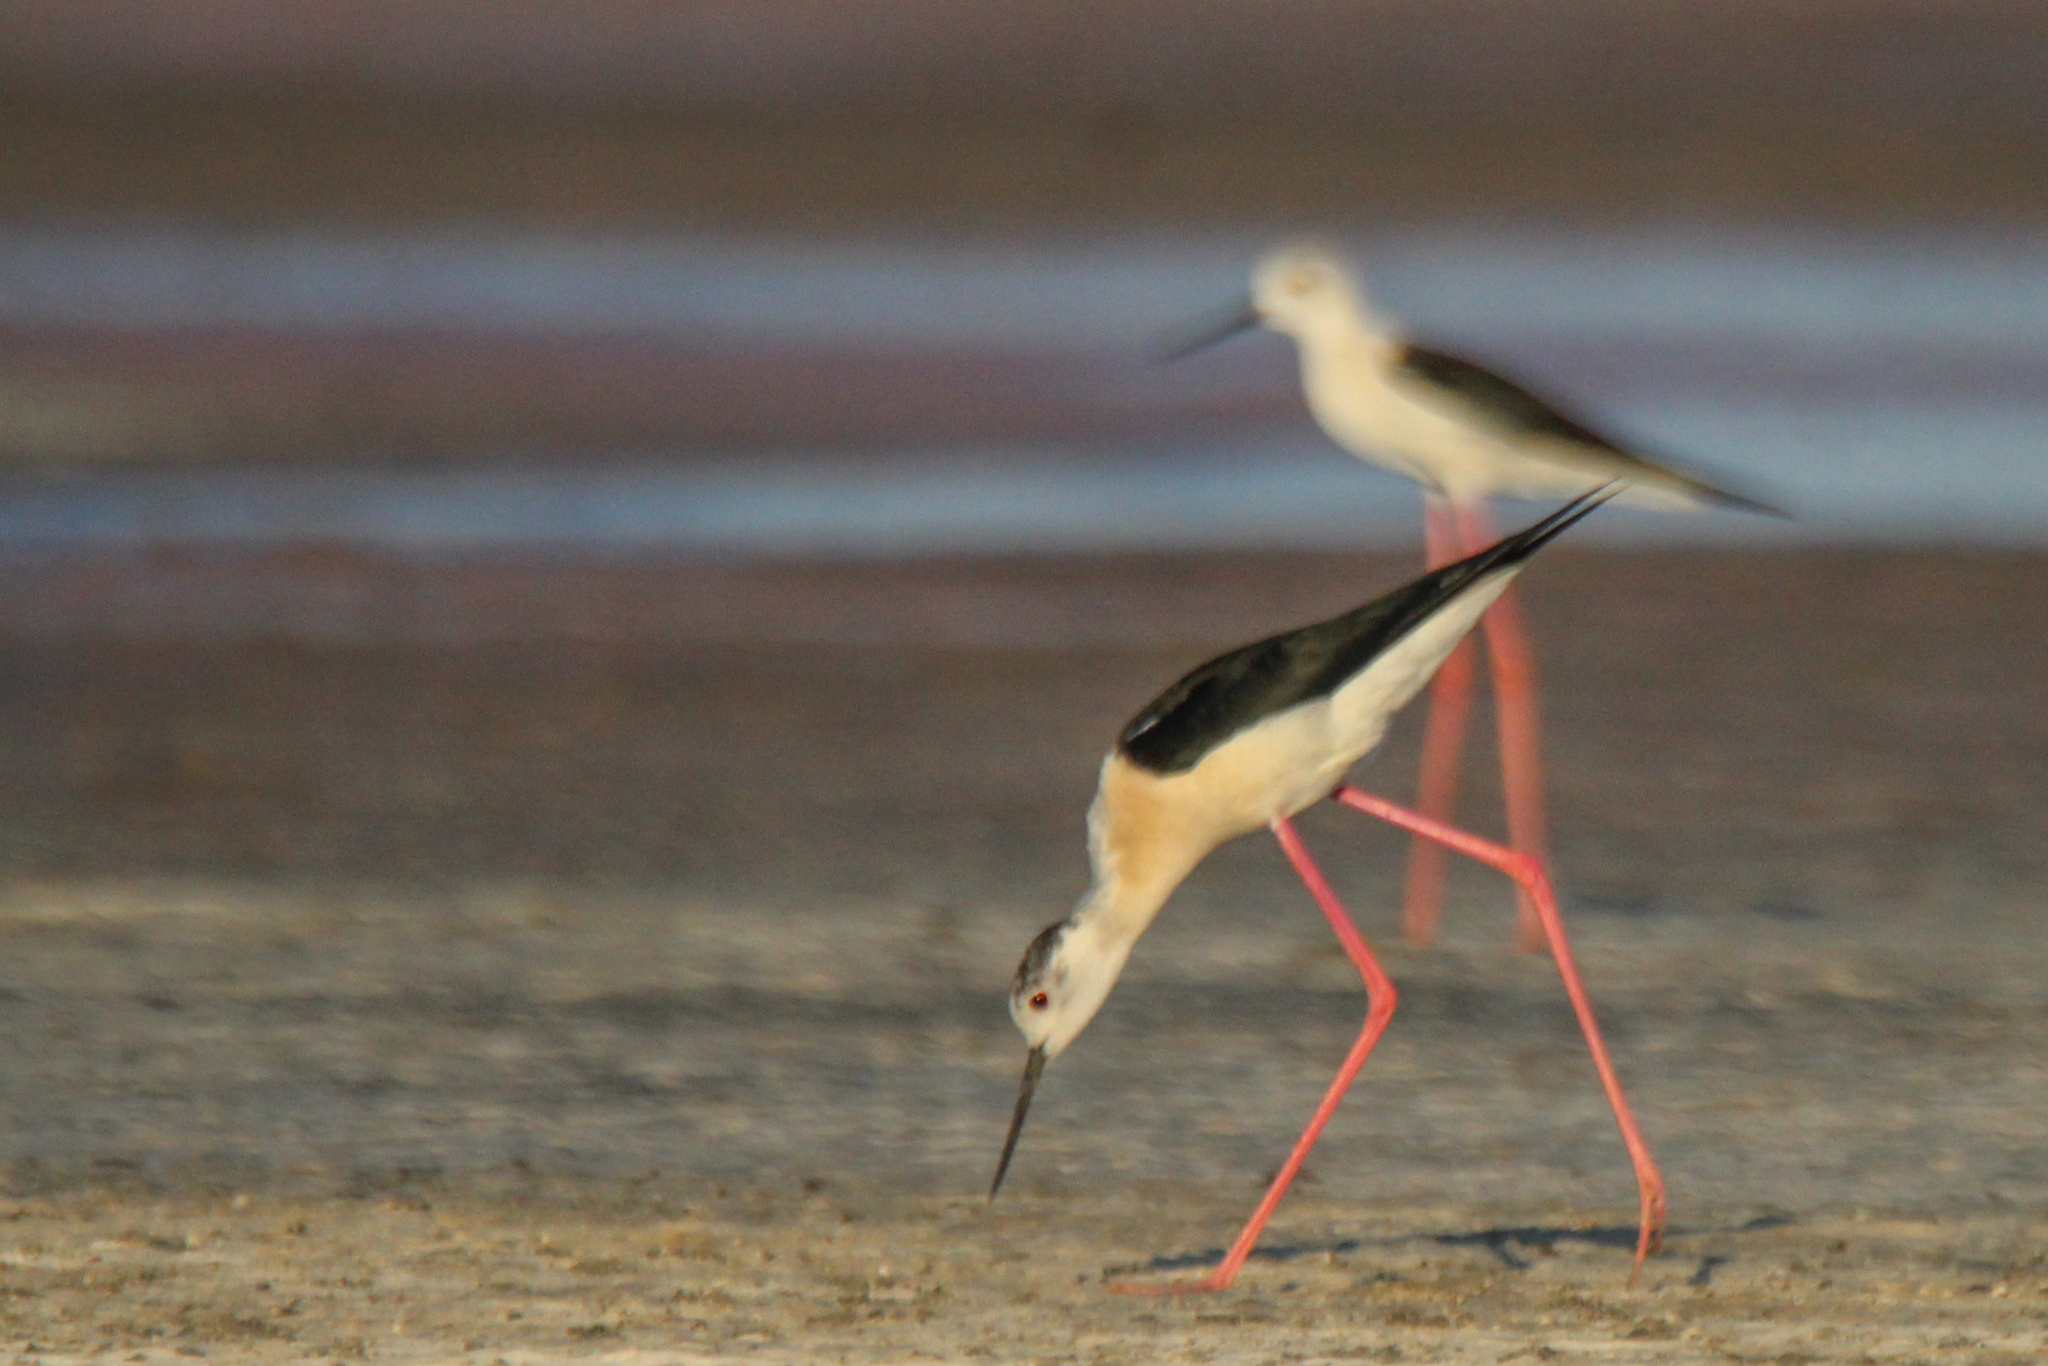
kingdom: Animalia
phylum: Chordata
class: Aves
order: Charadriiformes
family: Recurvirostridae
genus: Himantopus
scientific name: Himantopus himantopus
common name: Black-winged stilt
